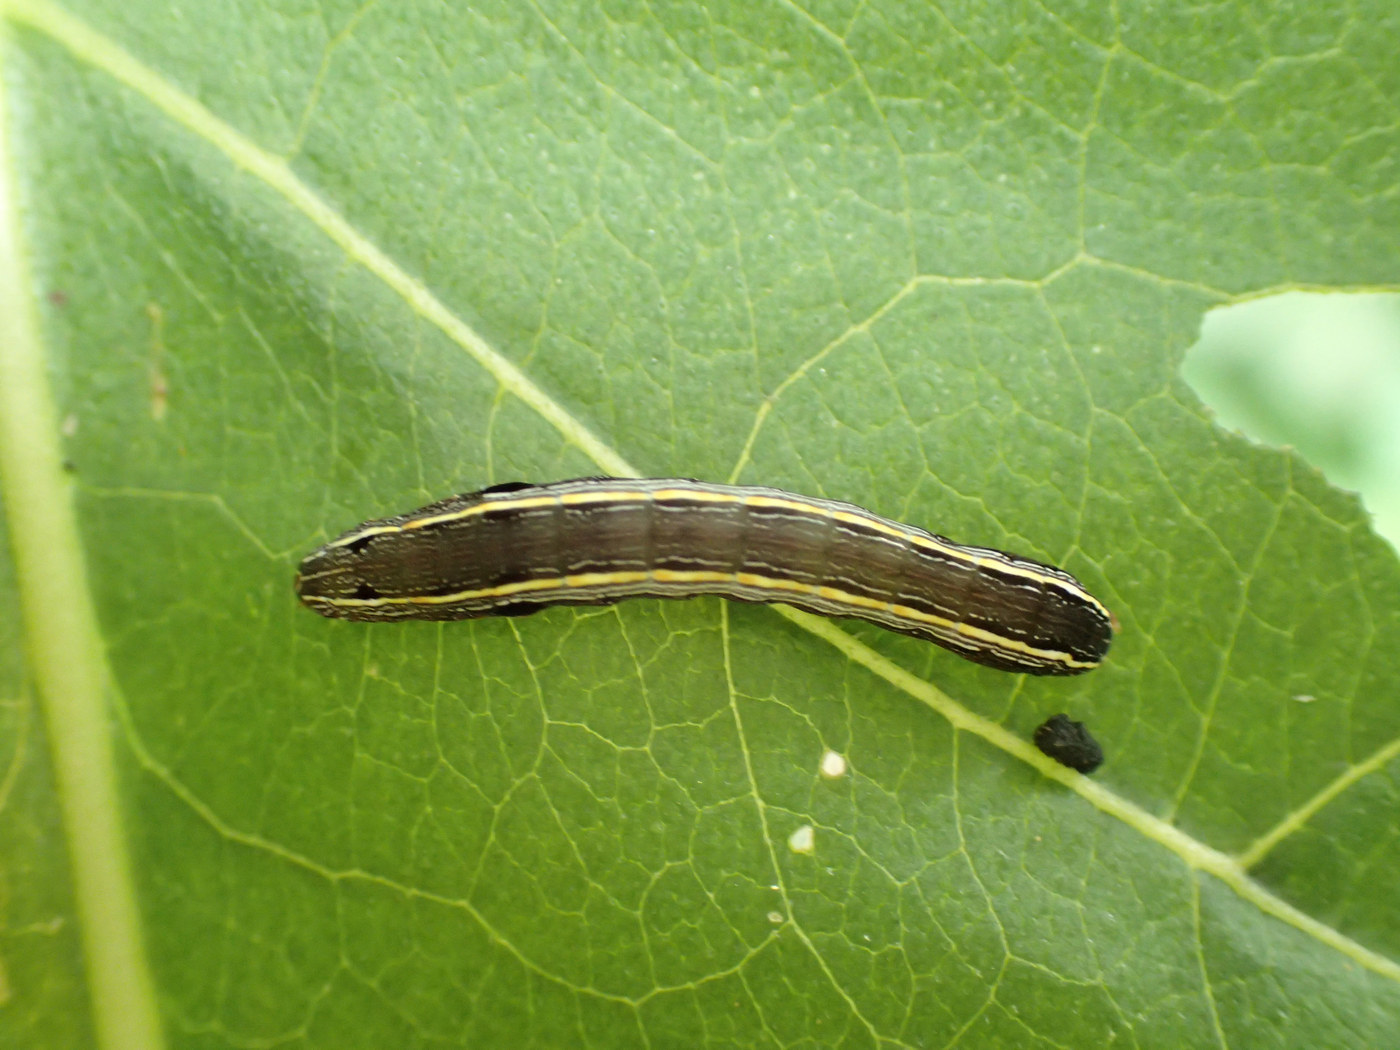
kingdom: Animalia
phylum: Arthropoda
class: Insecta
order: Lepidoptera
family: Noctuidae
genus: Spodoptera
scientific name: Spodoptera ornithogalli
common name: Yellow-striped armyworm
